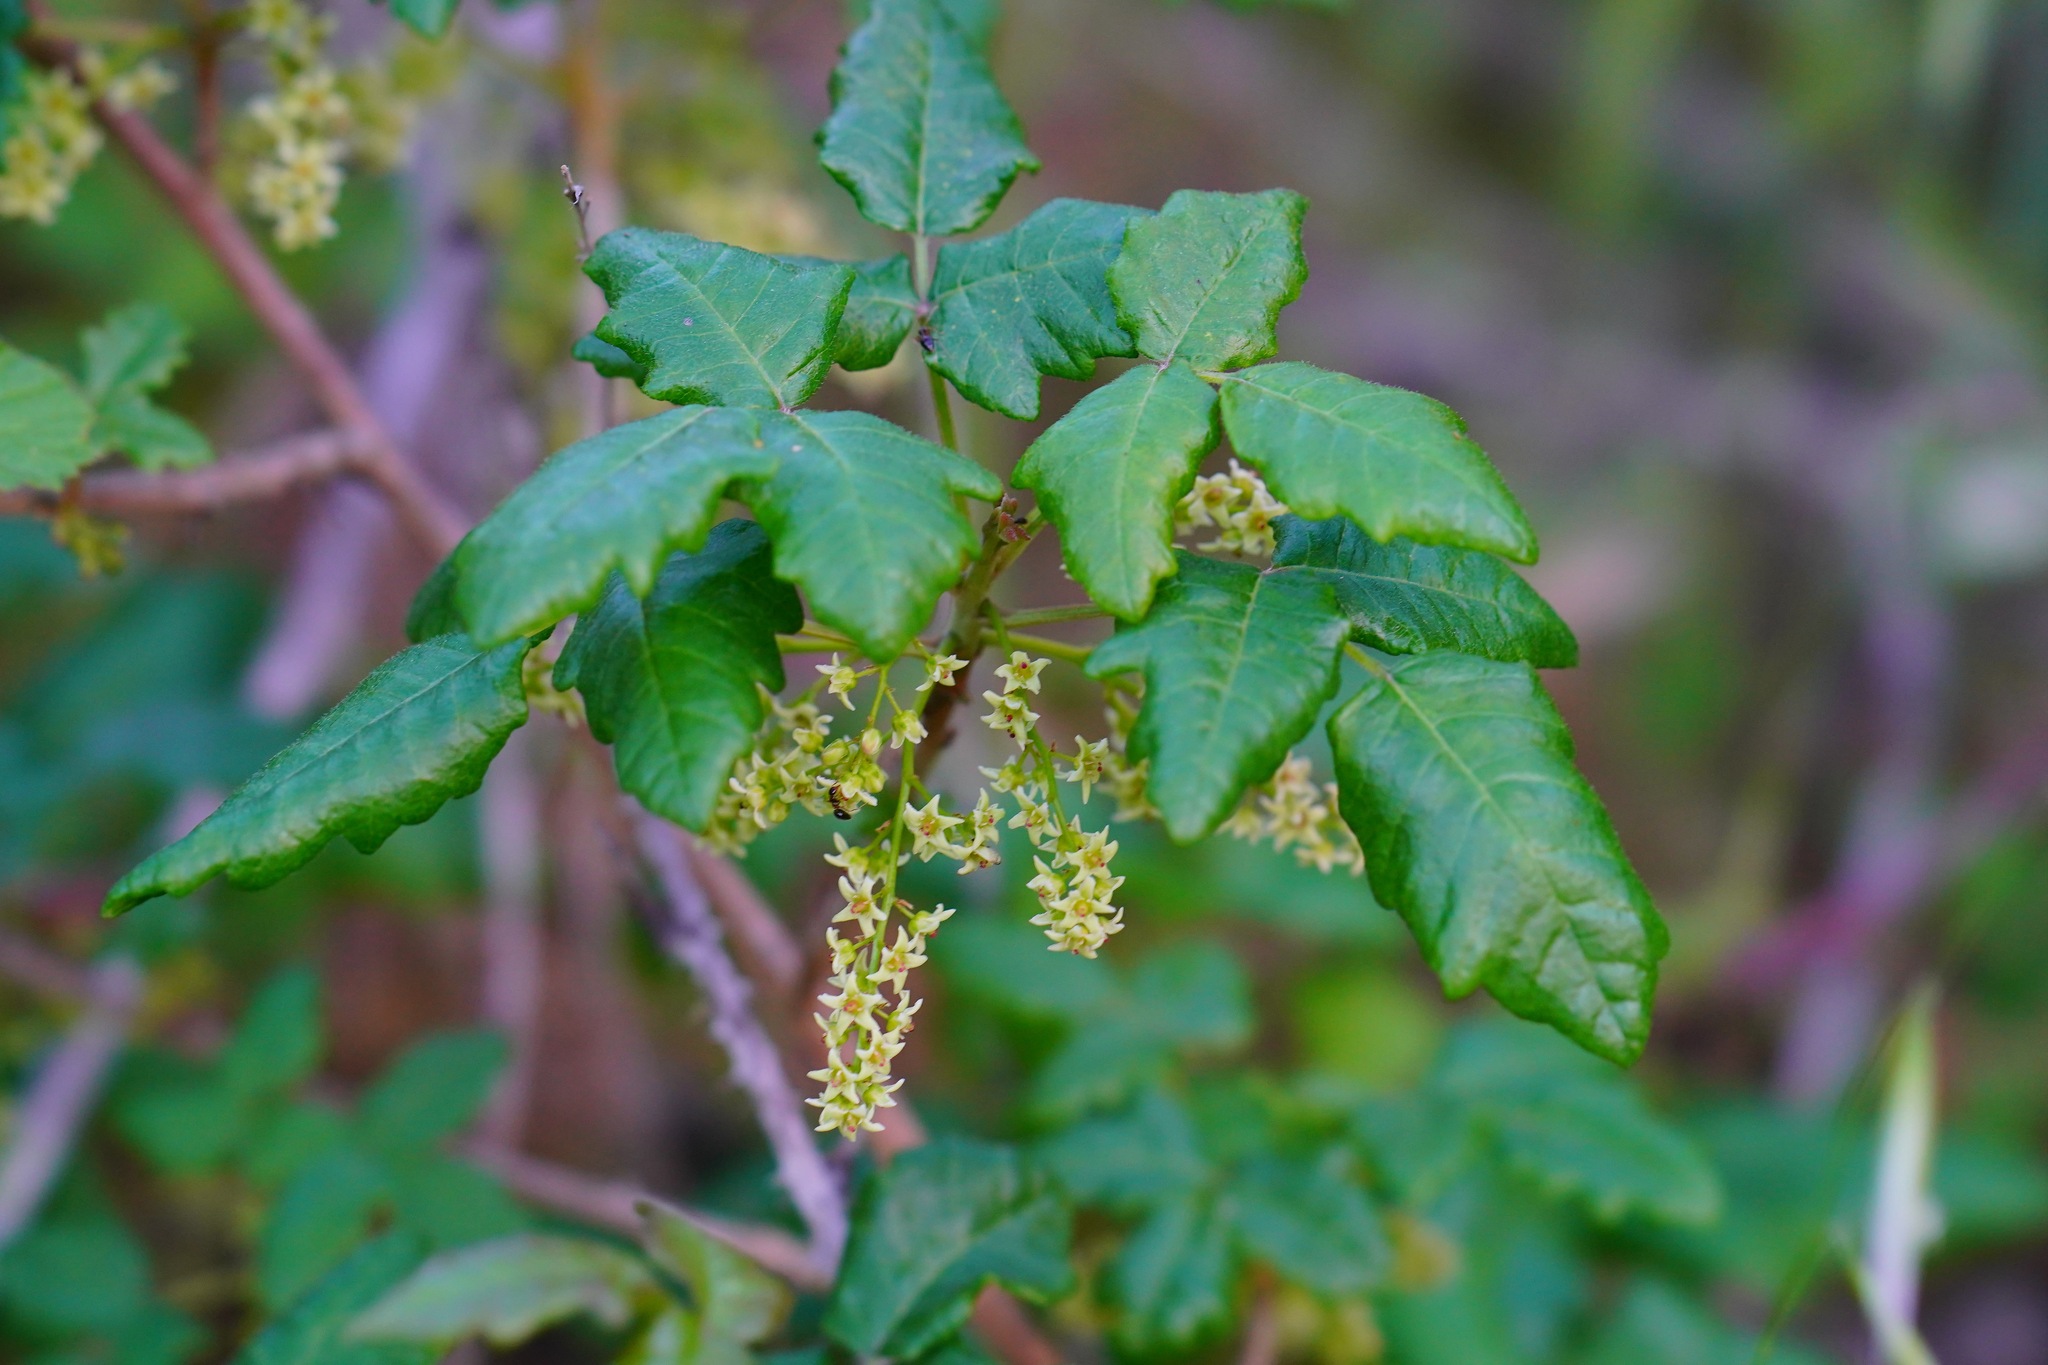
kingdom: Plantae
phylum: Tracheophyta
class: Magnoliopsida
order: Sapindales
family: Anacardiaceae
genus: Toxicodendron
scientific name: Toxicodendron diversilobum
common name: Pacific poison-oak
